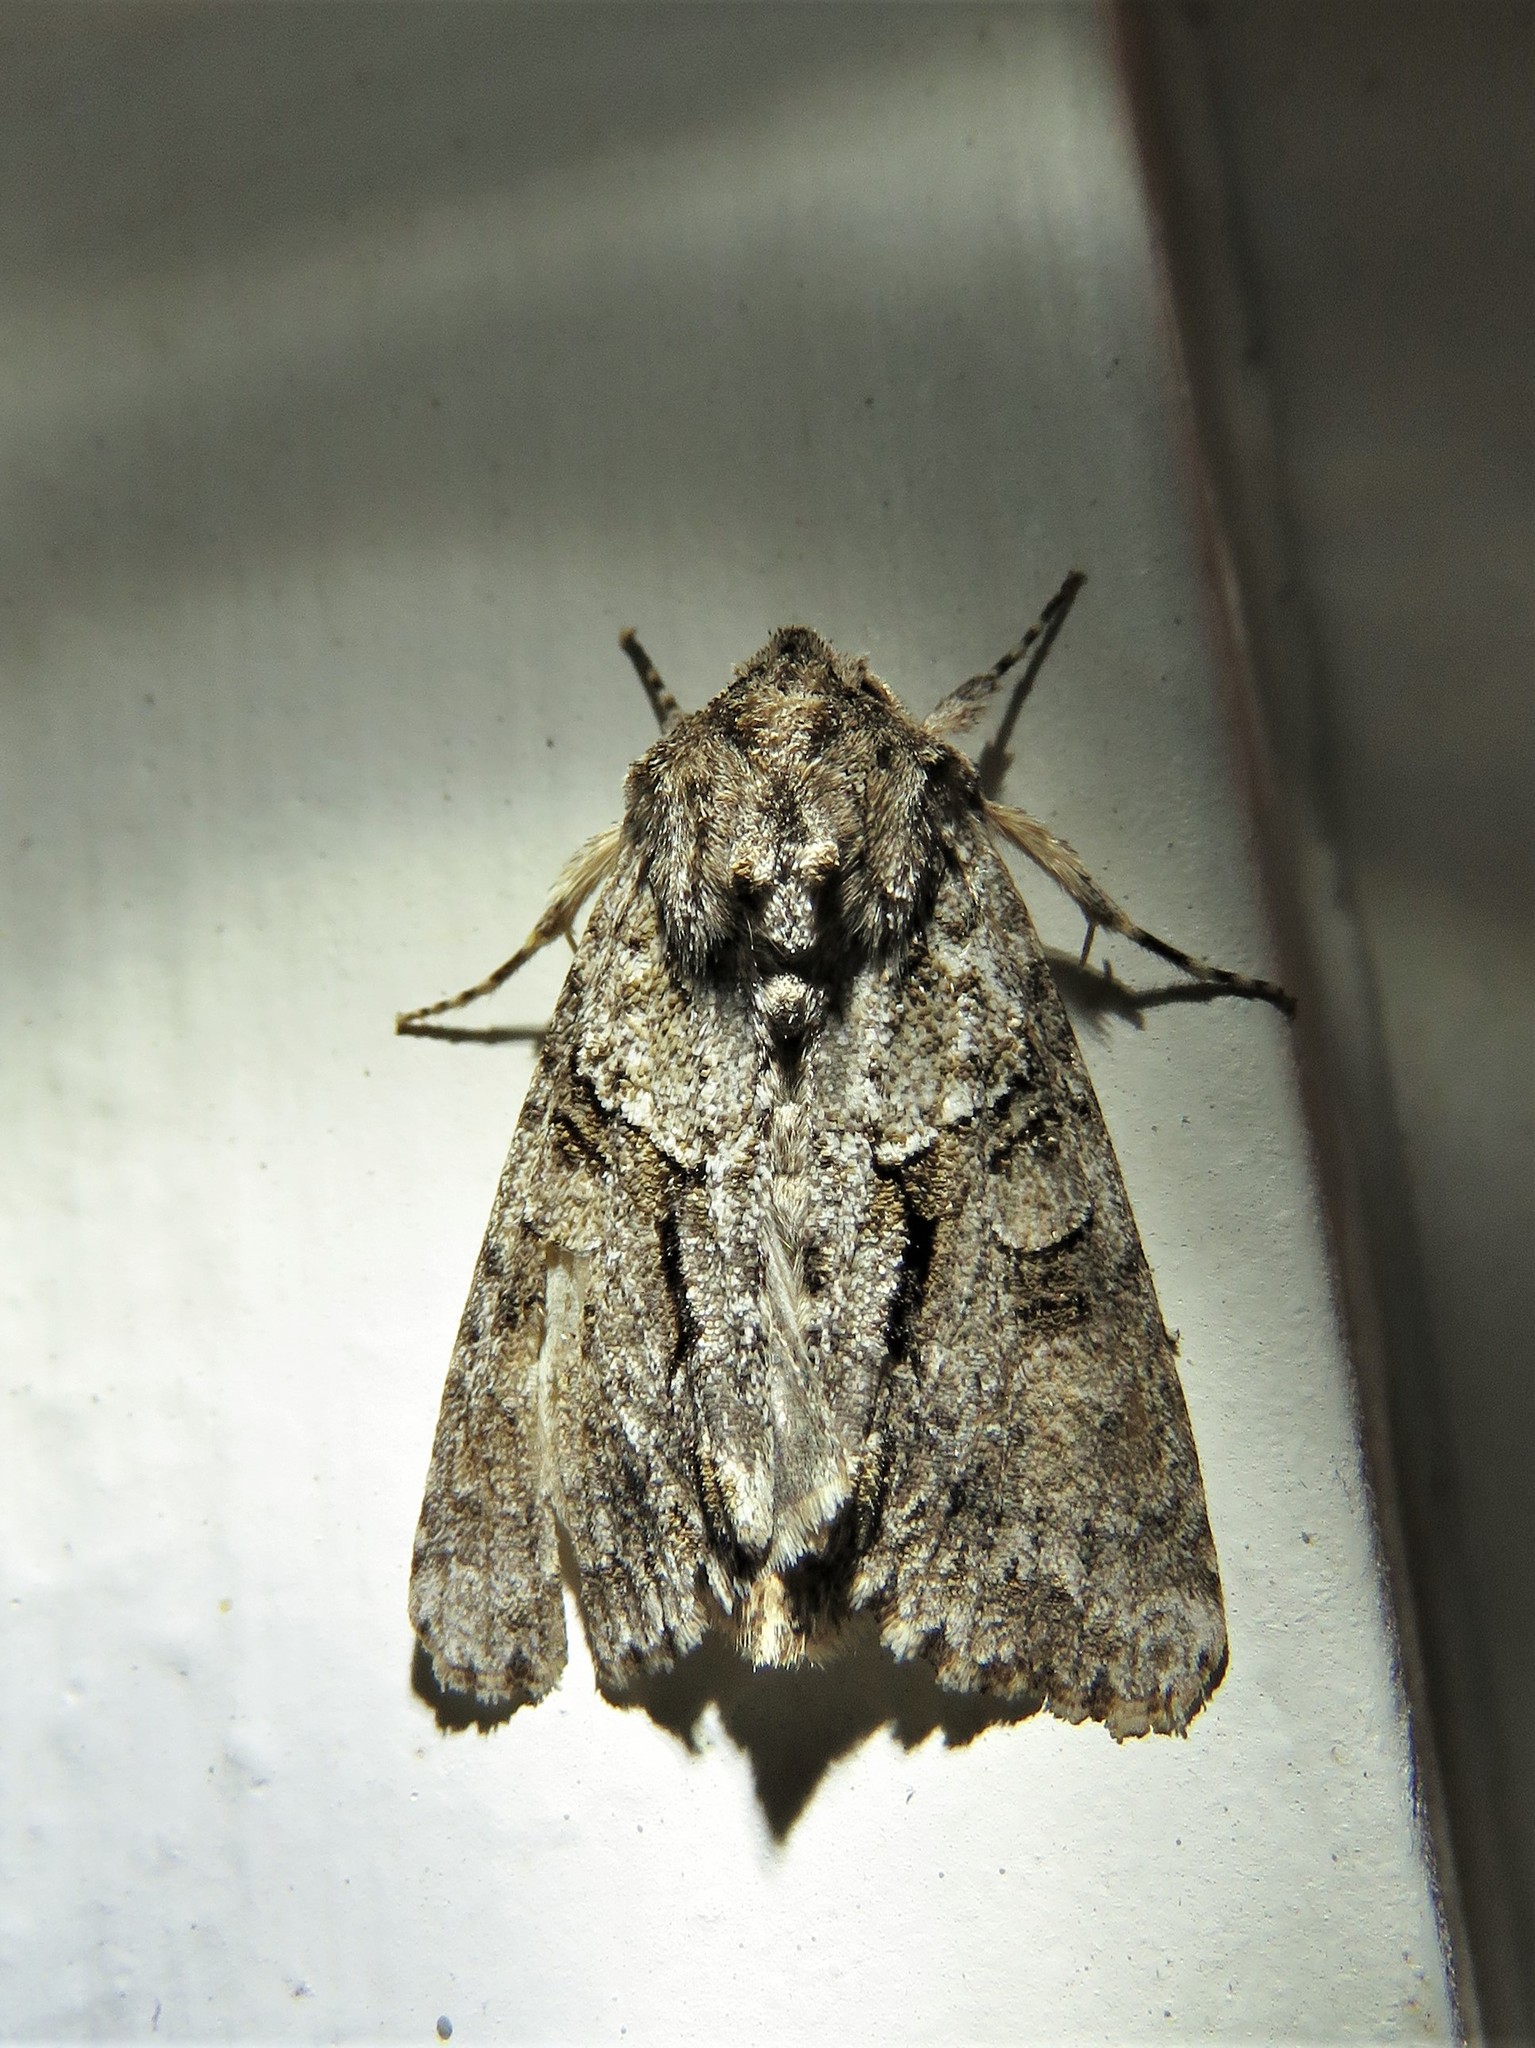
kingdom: Animalia
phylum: Arthropoda
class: Insecta
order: Lepidoptera
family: Noctuidae
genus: Achatia
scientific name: Achatia distincta
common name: Distinct quaker
